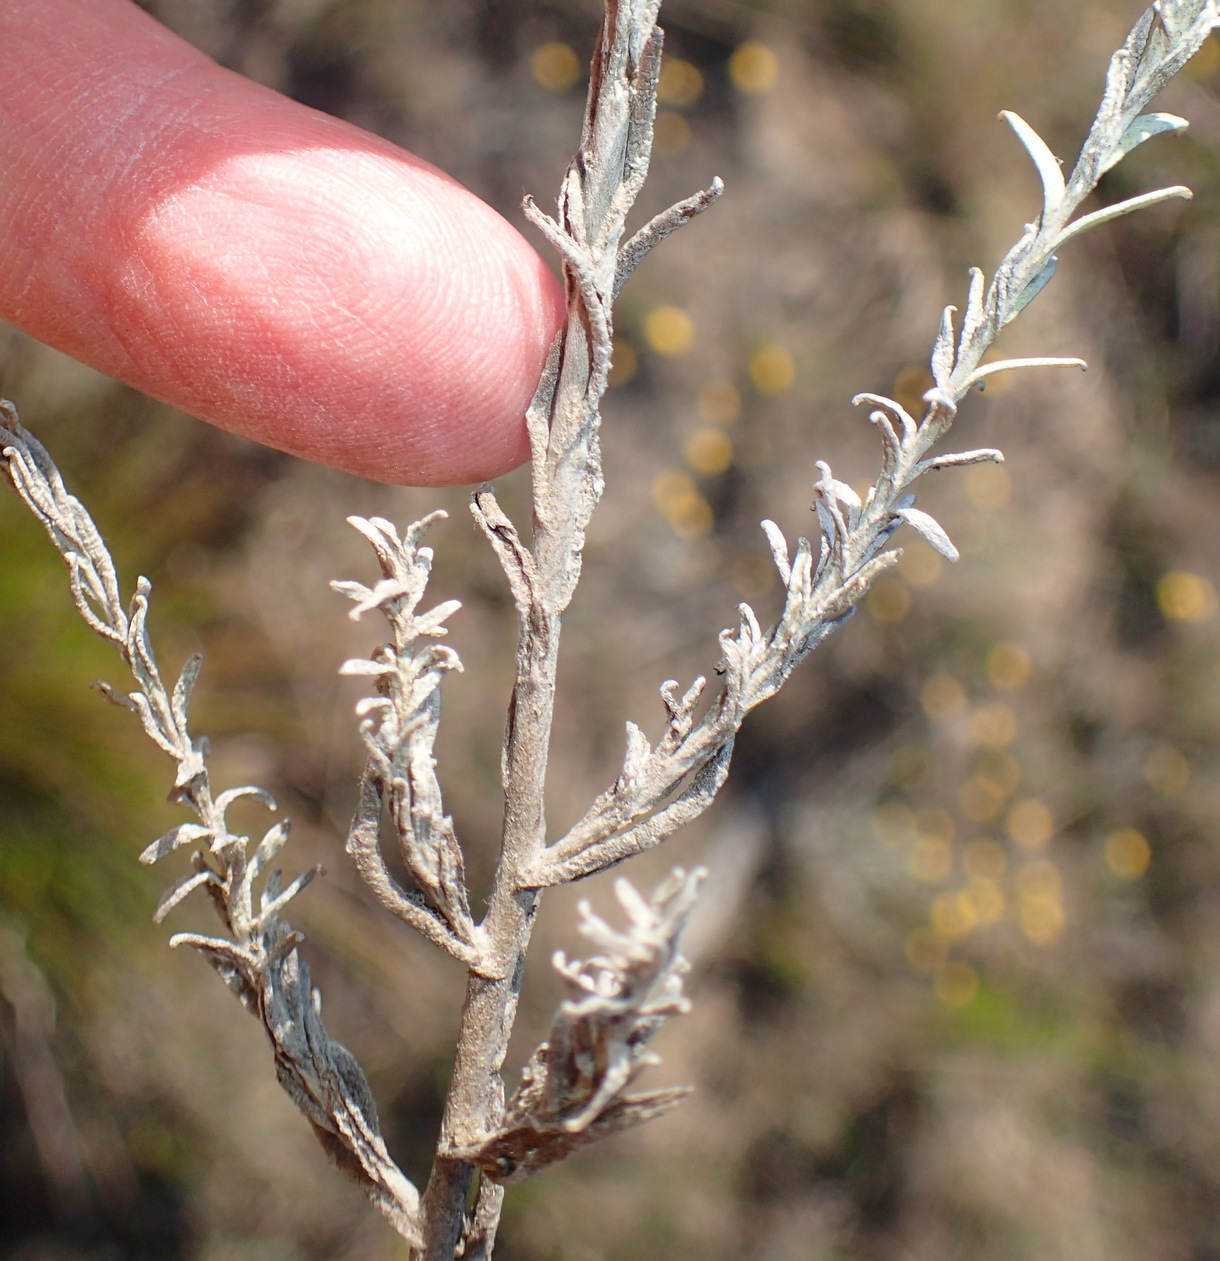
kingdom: Plantae
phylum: Tracheophyta
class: Magnoliopsida
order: Asterales
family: Asteraceae
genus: Helichrysum
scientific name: Helichrysum anomalum
